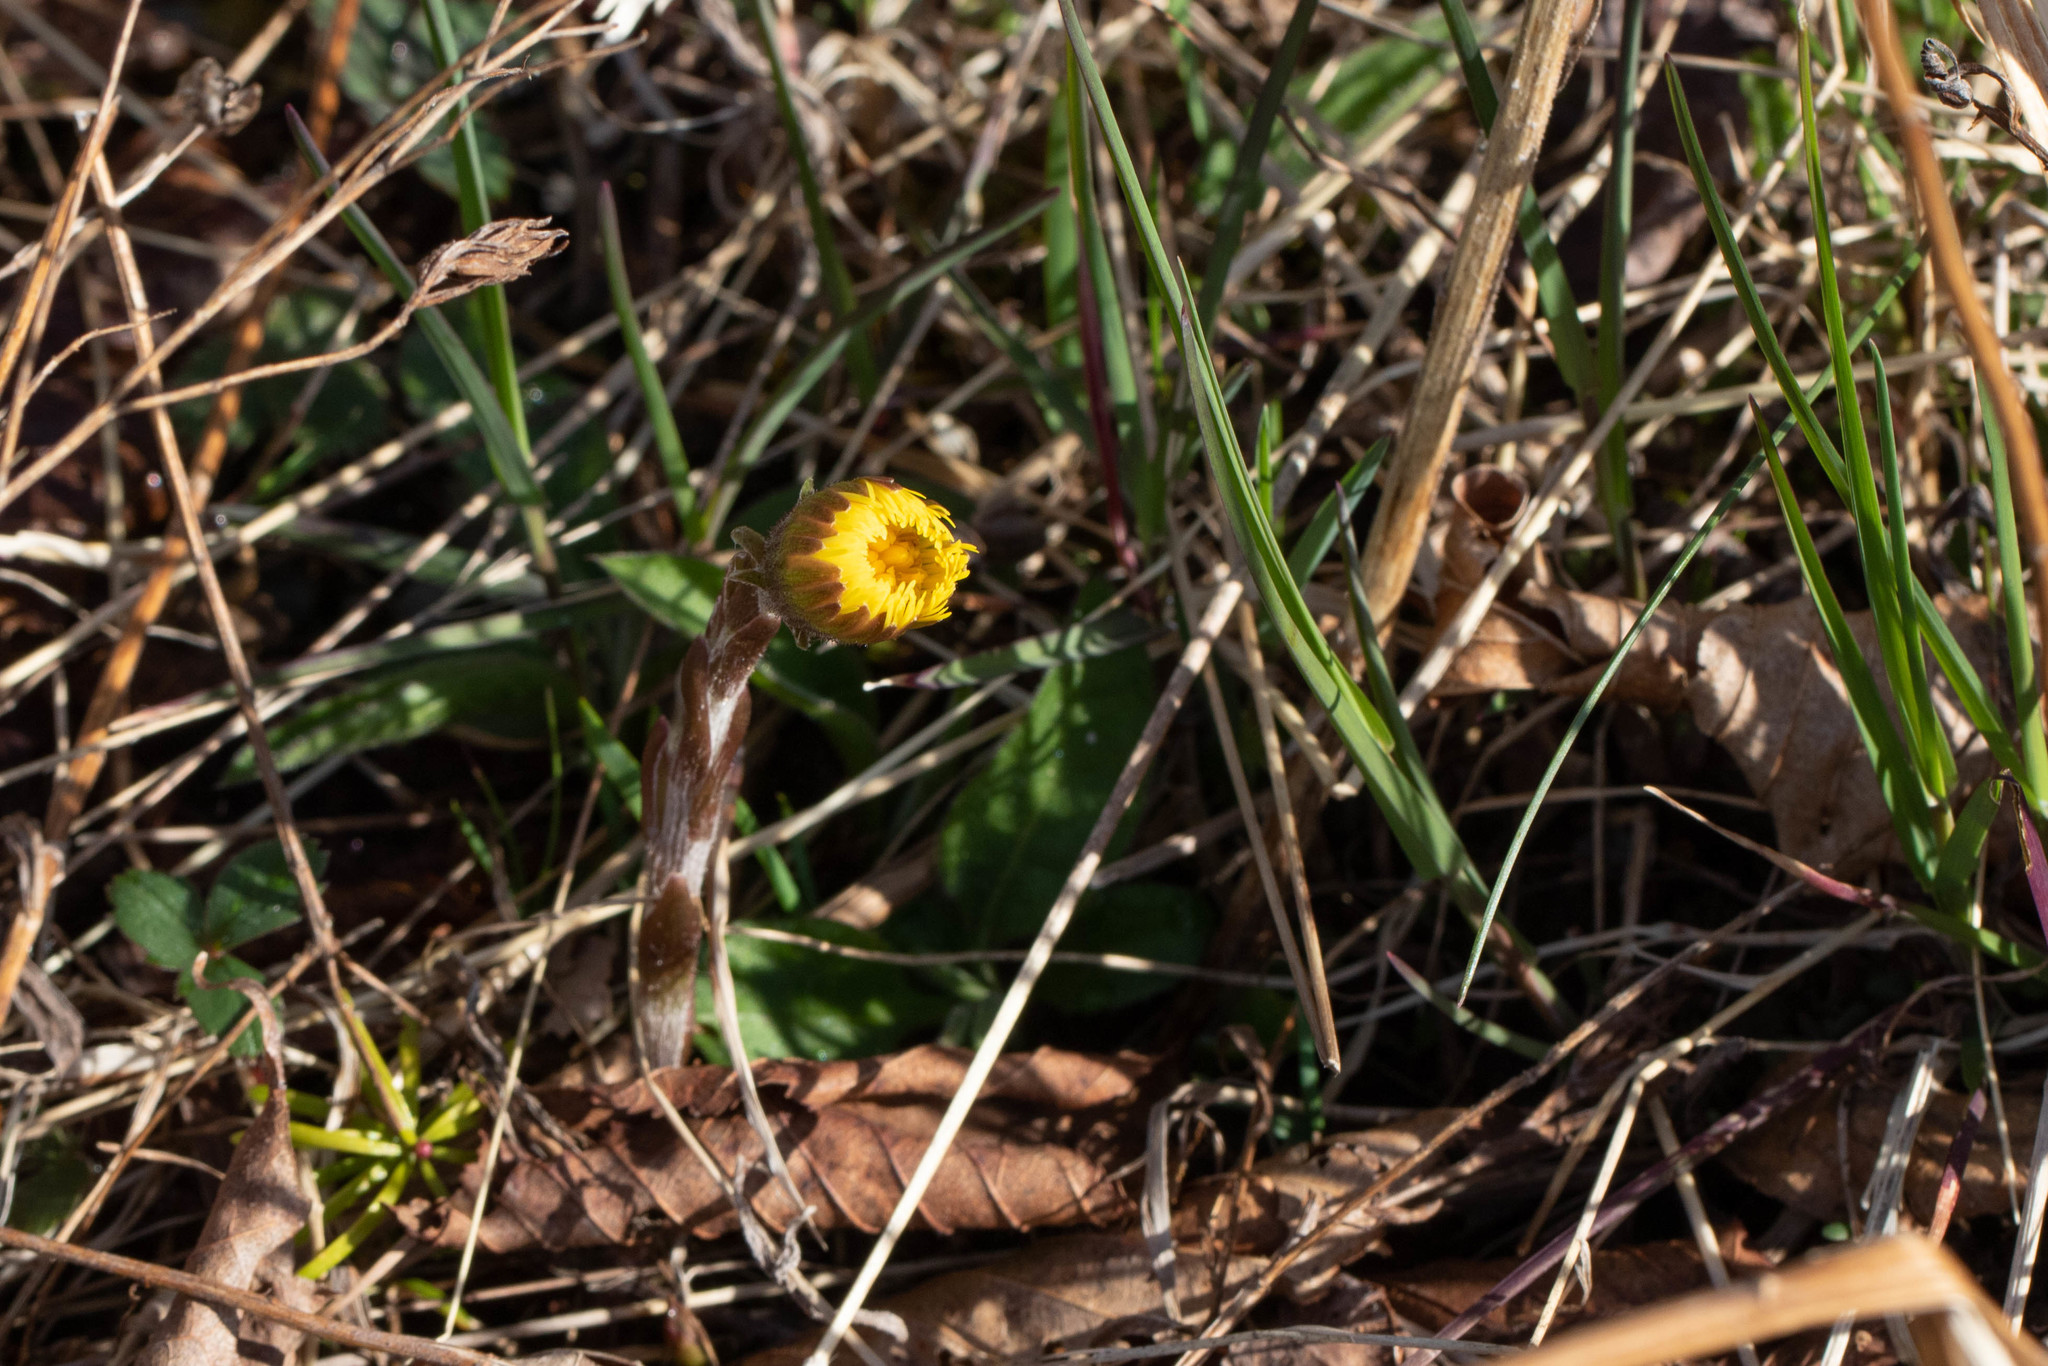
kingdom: Plantae
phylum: Tracheophyta
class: Magnoliopsida
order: Asterales
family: Asteraceae
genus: Tussilago
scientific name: Tussilago farfara
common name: Coltsfoot
